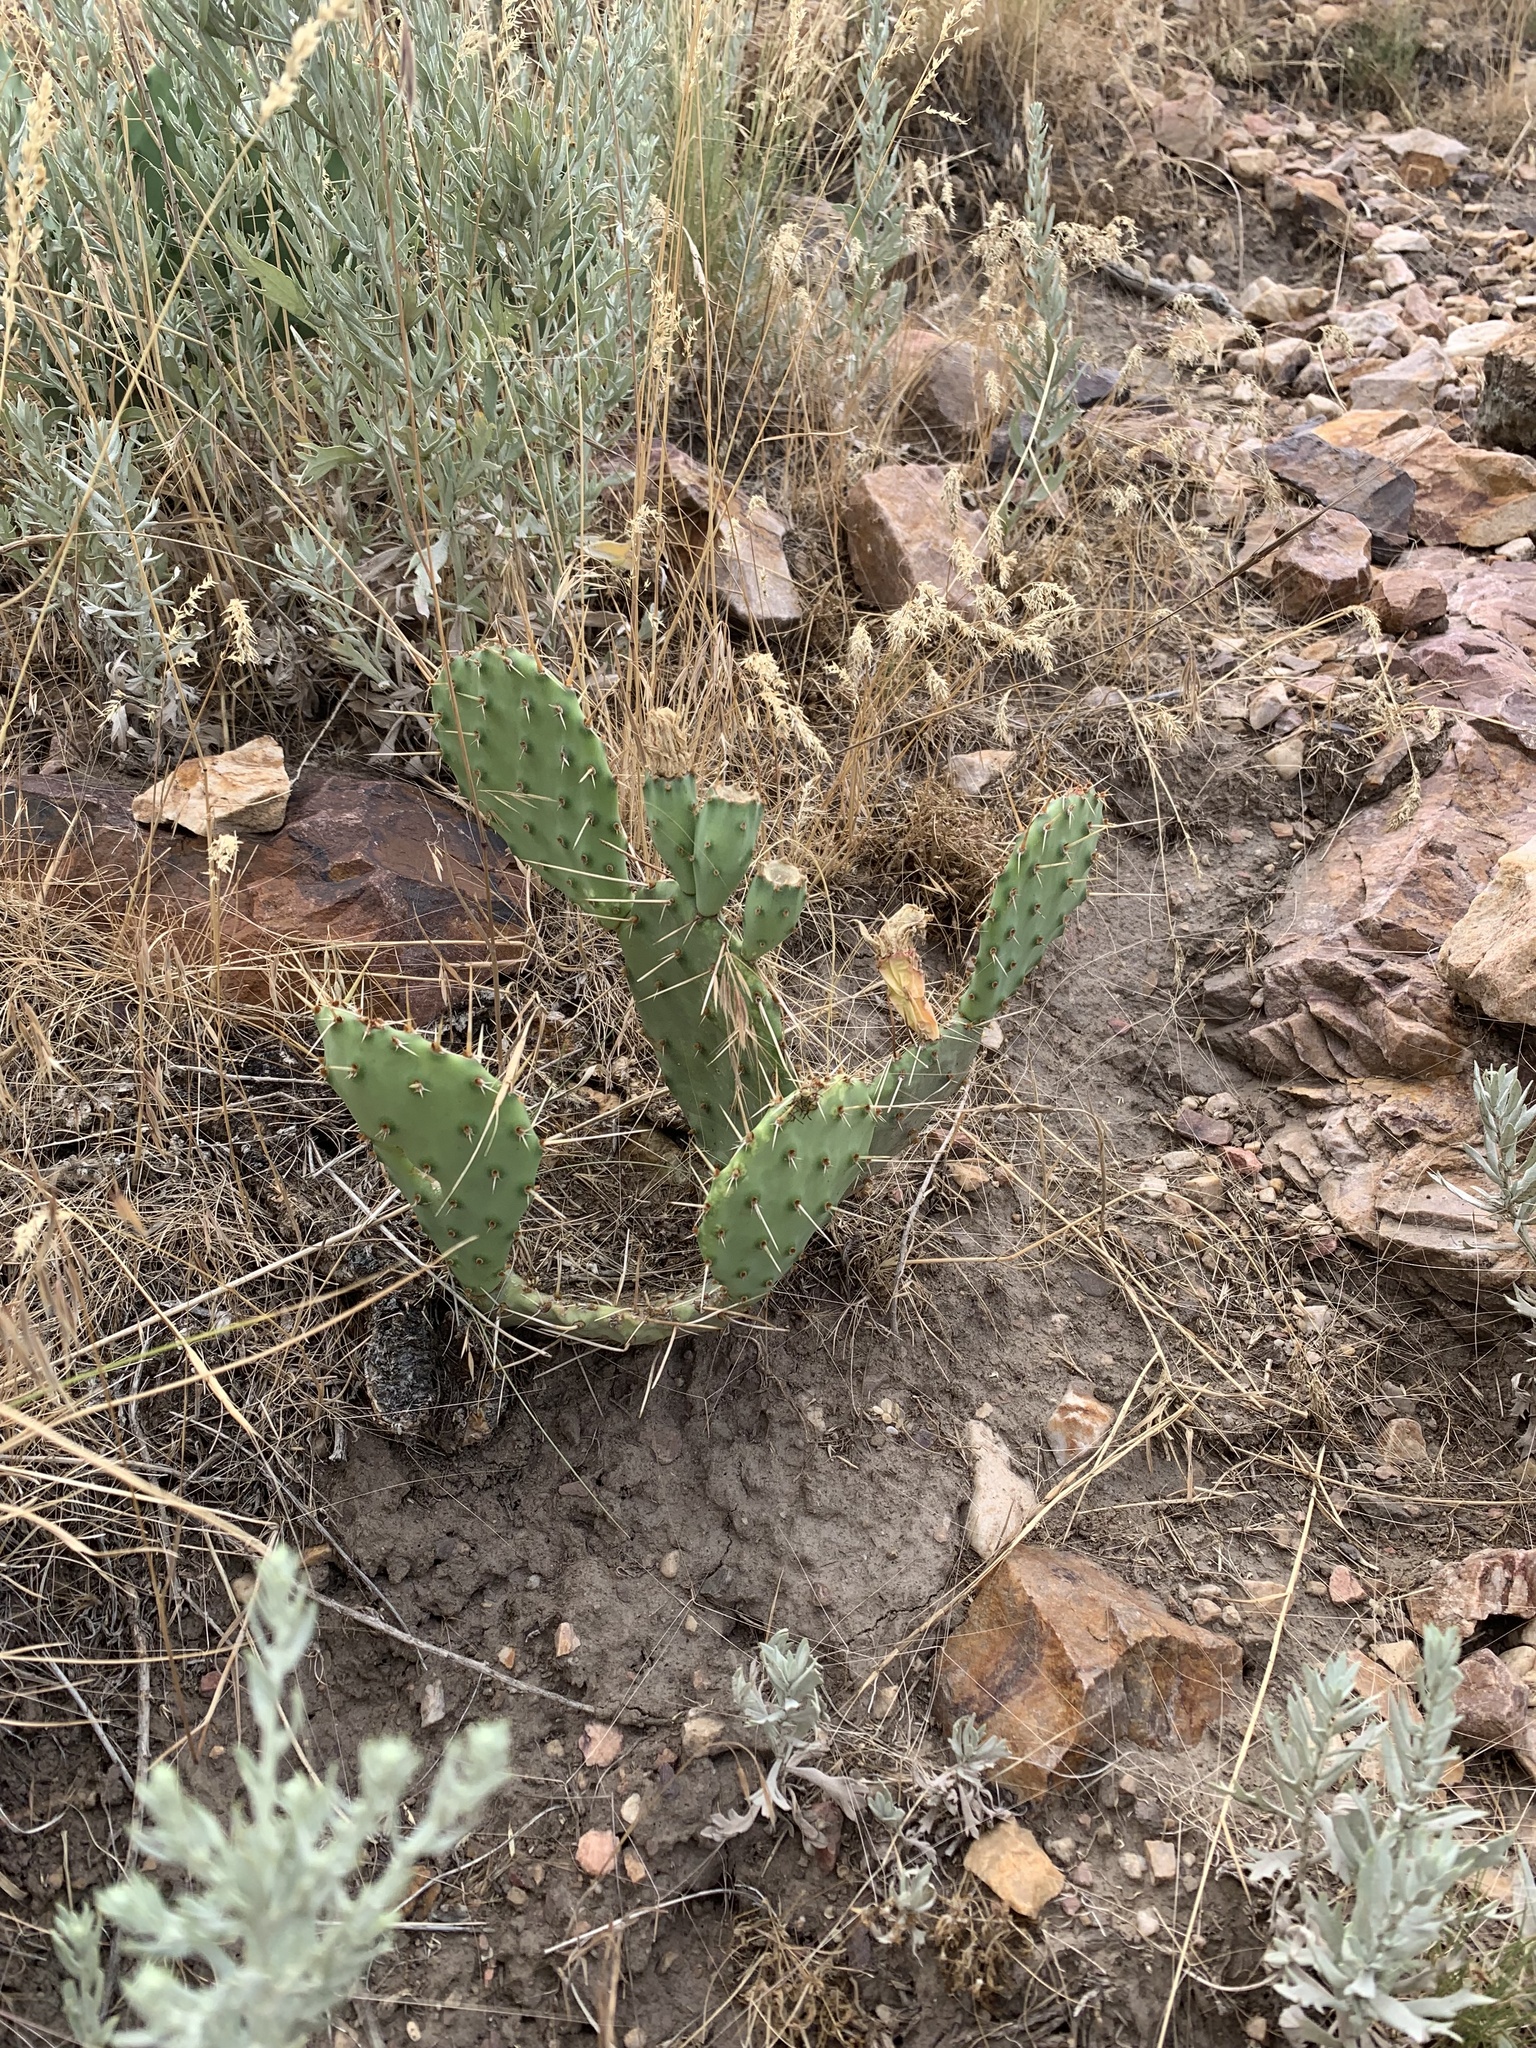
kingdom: Plantae
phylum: Tracheophyta
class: Magnoliopsida
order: Caryophyllales
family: Cactaceae
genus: Opuntia
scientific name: Opuntia macrorhiza
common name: Grassland pricklypear
